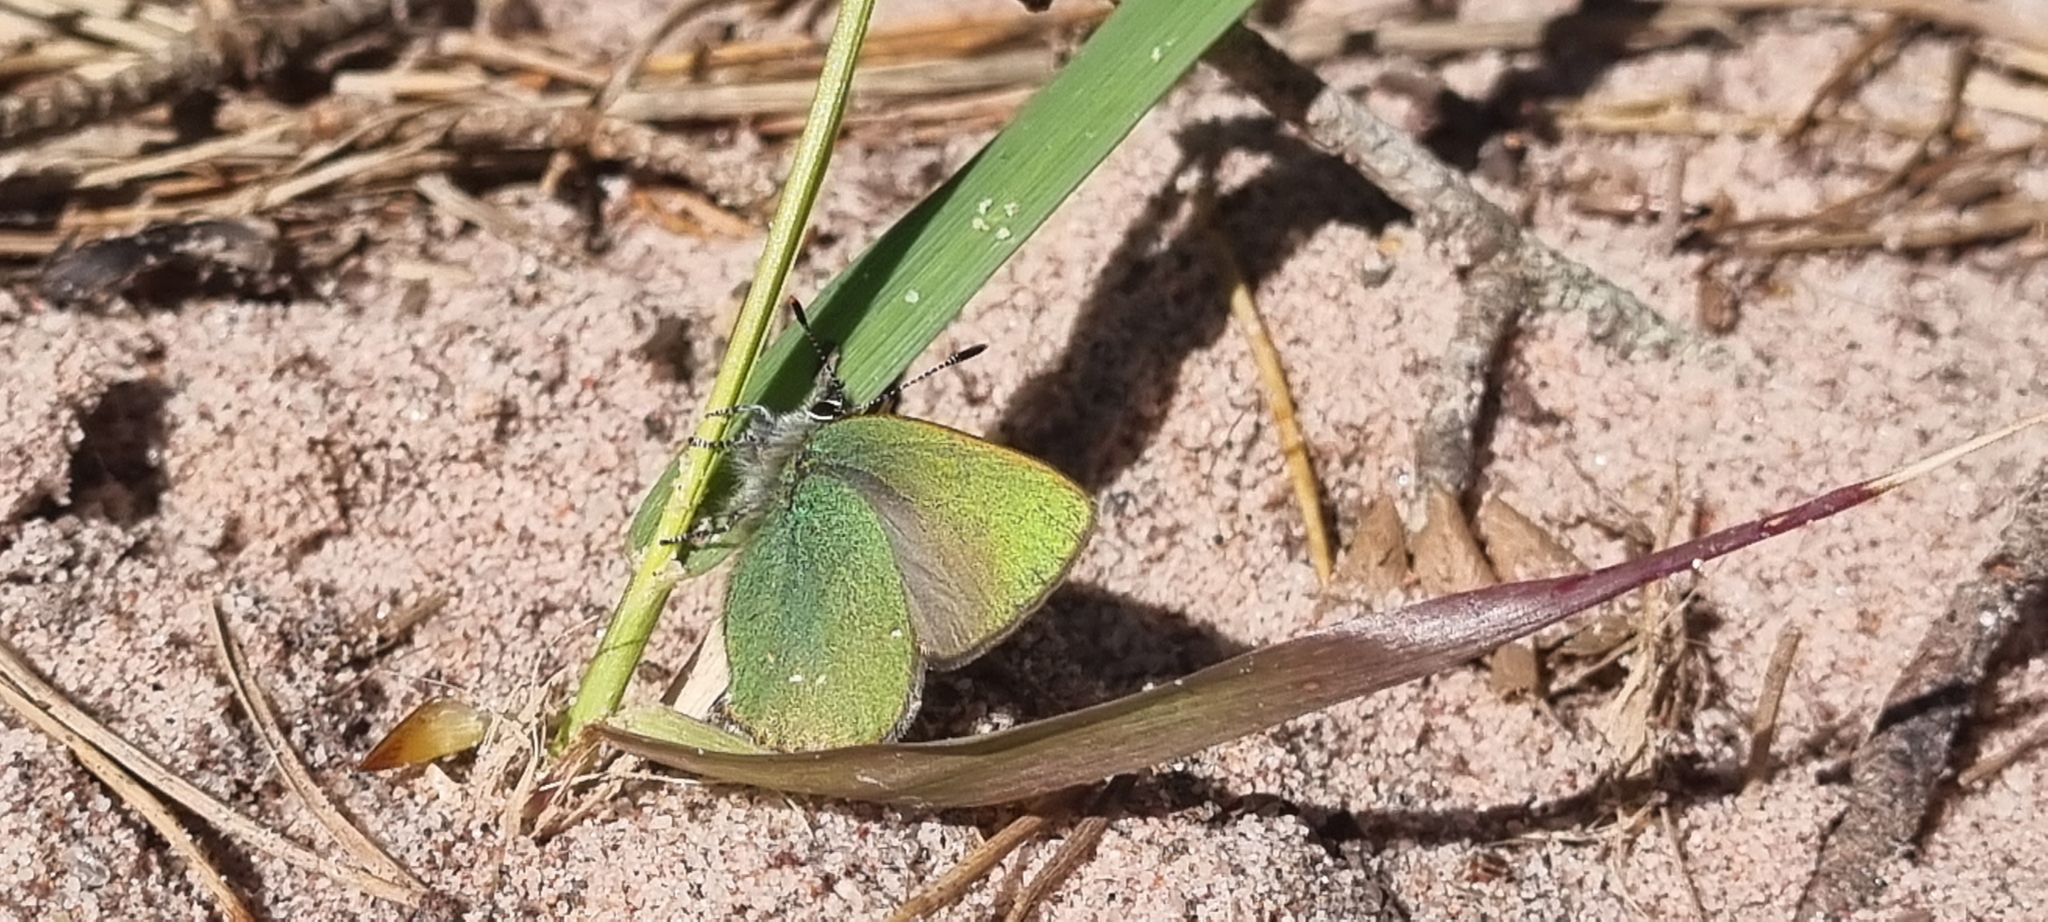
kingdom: Animalia
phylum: Arthropoda
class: Insecta
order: Lepidoptera
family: Lycaenidae
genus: Callophrys
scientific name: Callophrys rubi
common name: Green hairstreak
